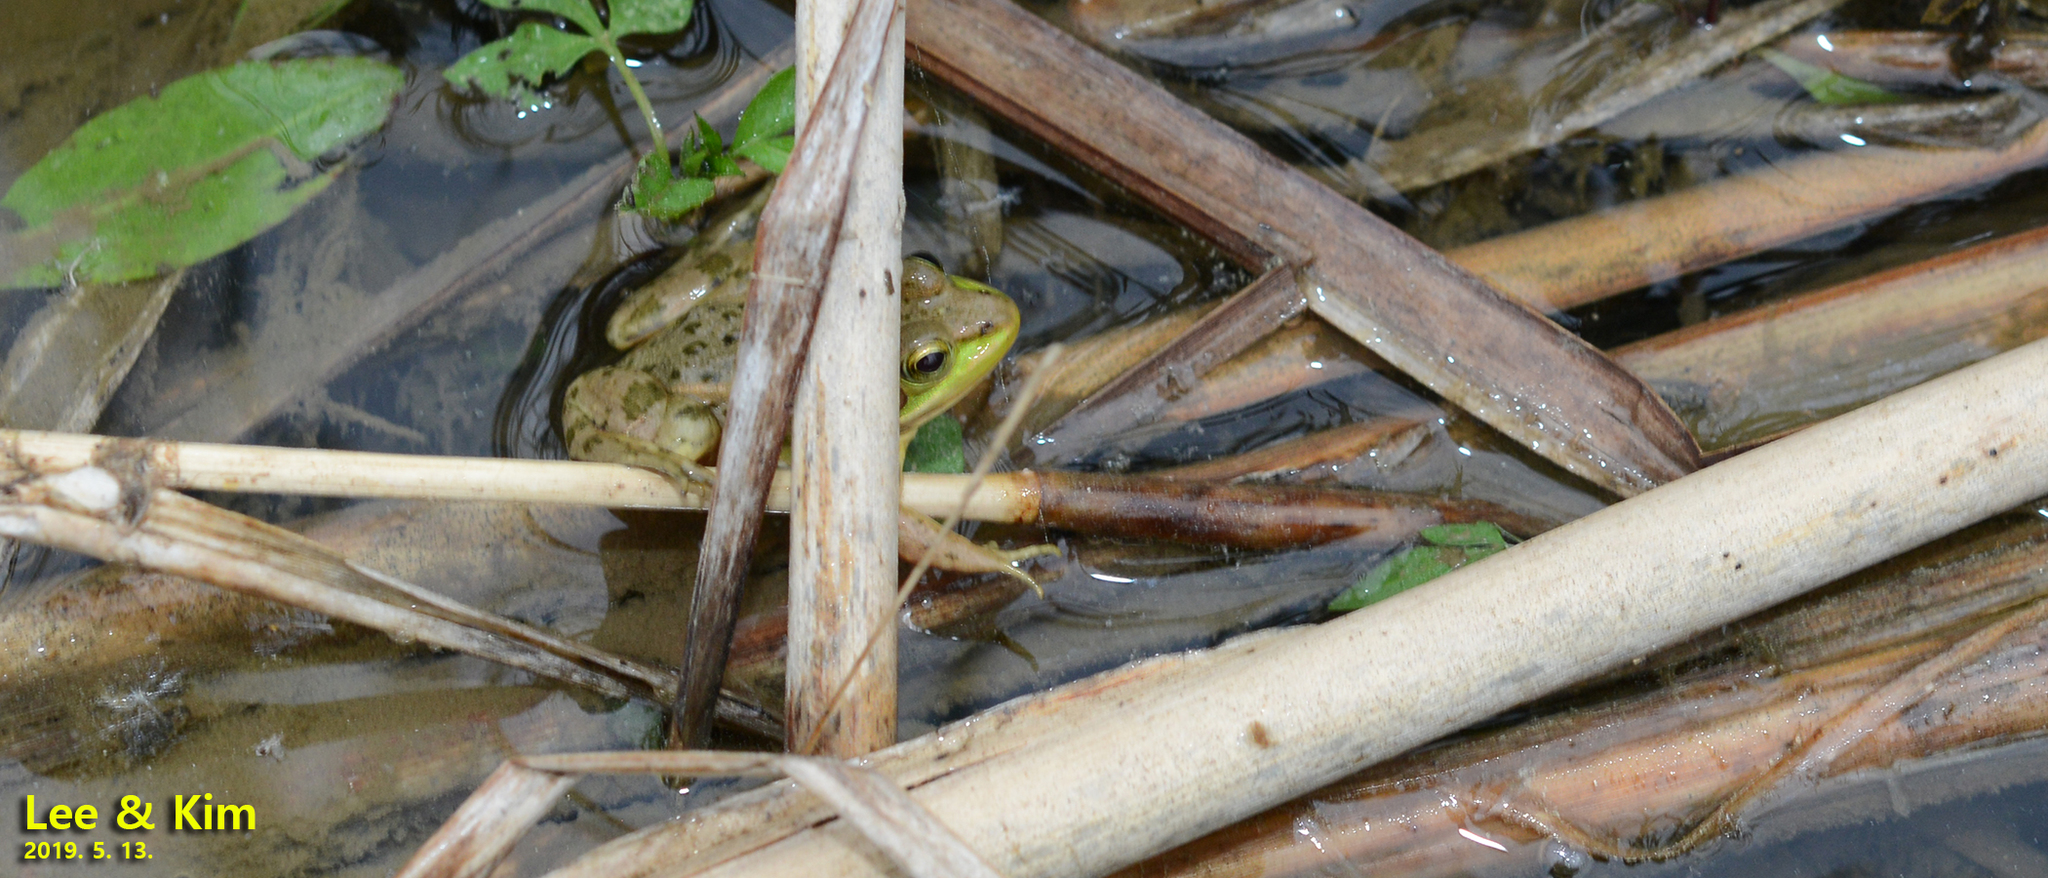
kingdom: Animalia
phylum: Chordata
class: Amphibia
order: Anura
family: Ranidae
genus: Pelophylax
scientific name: Pelophylax chosenicus
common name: Gold-spotted pond frog
